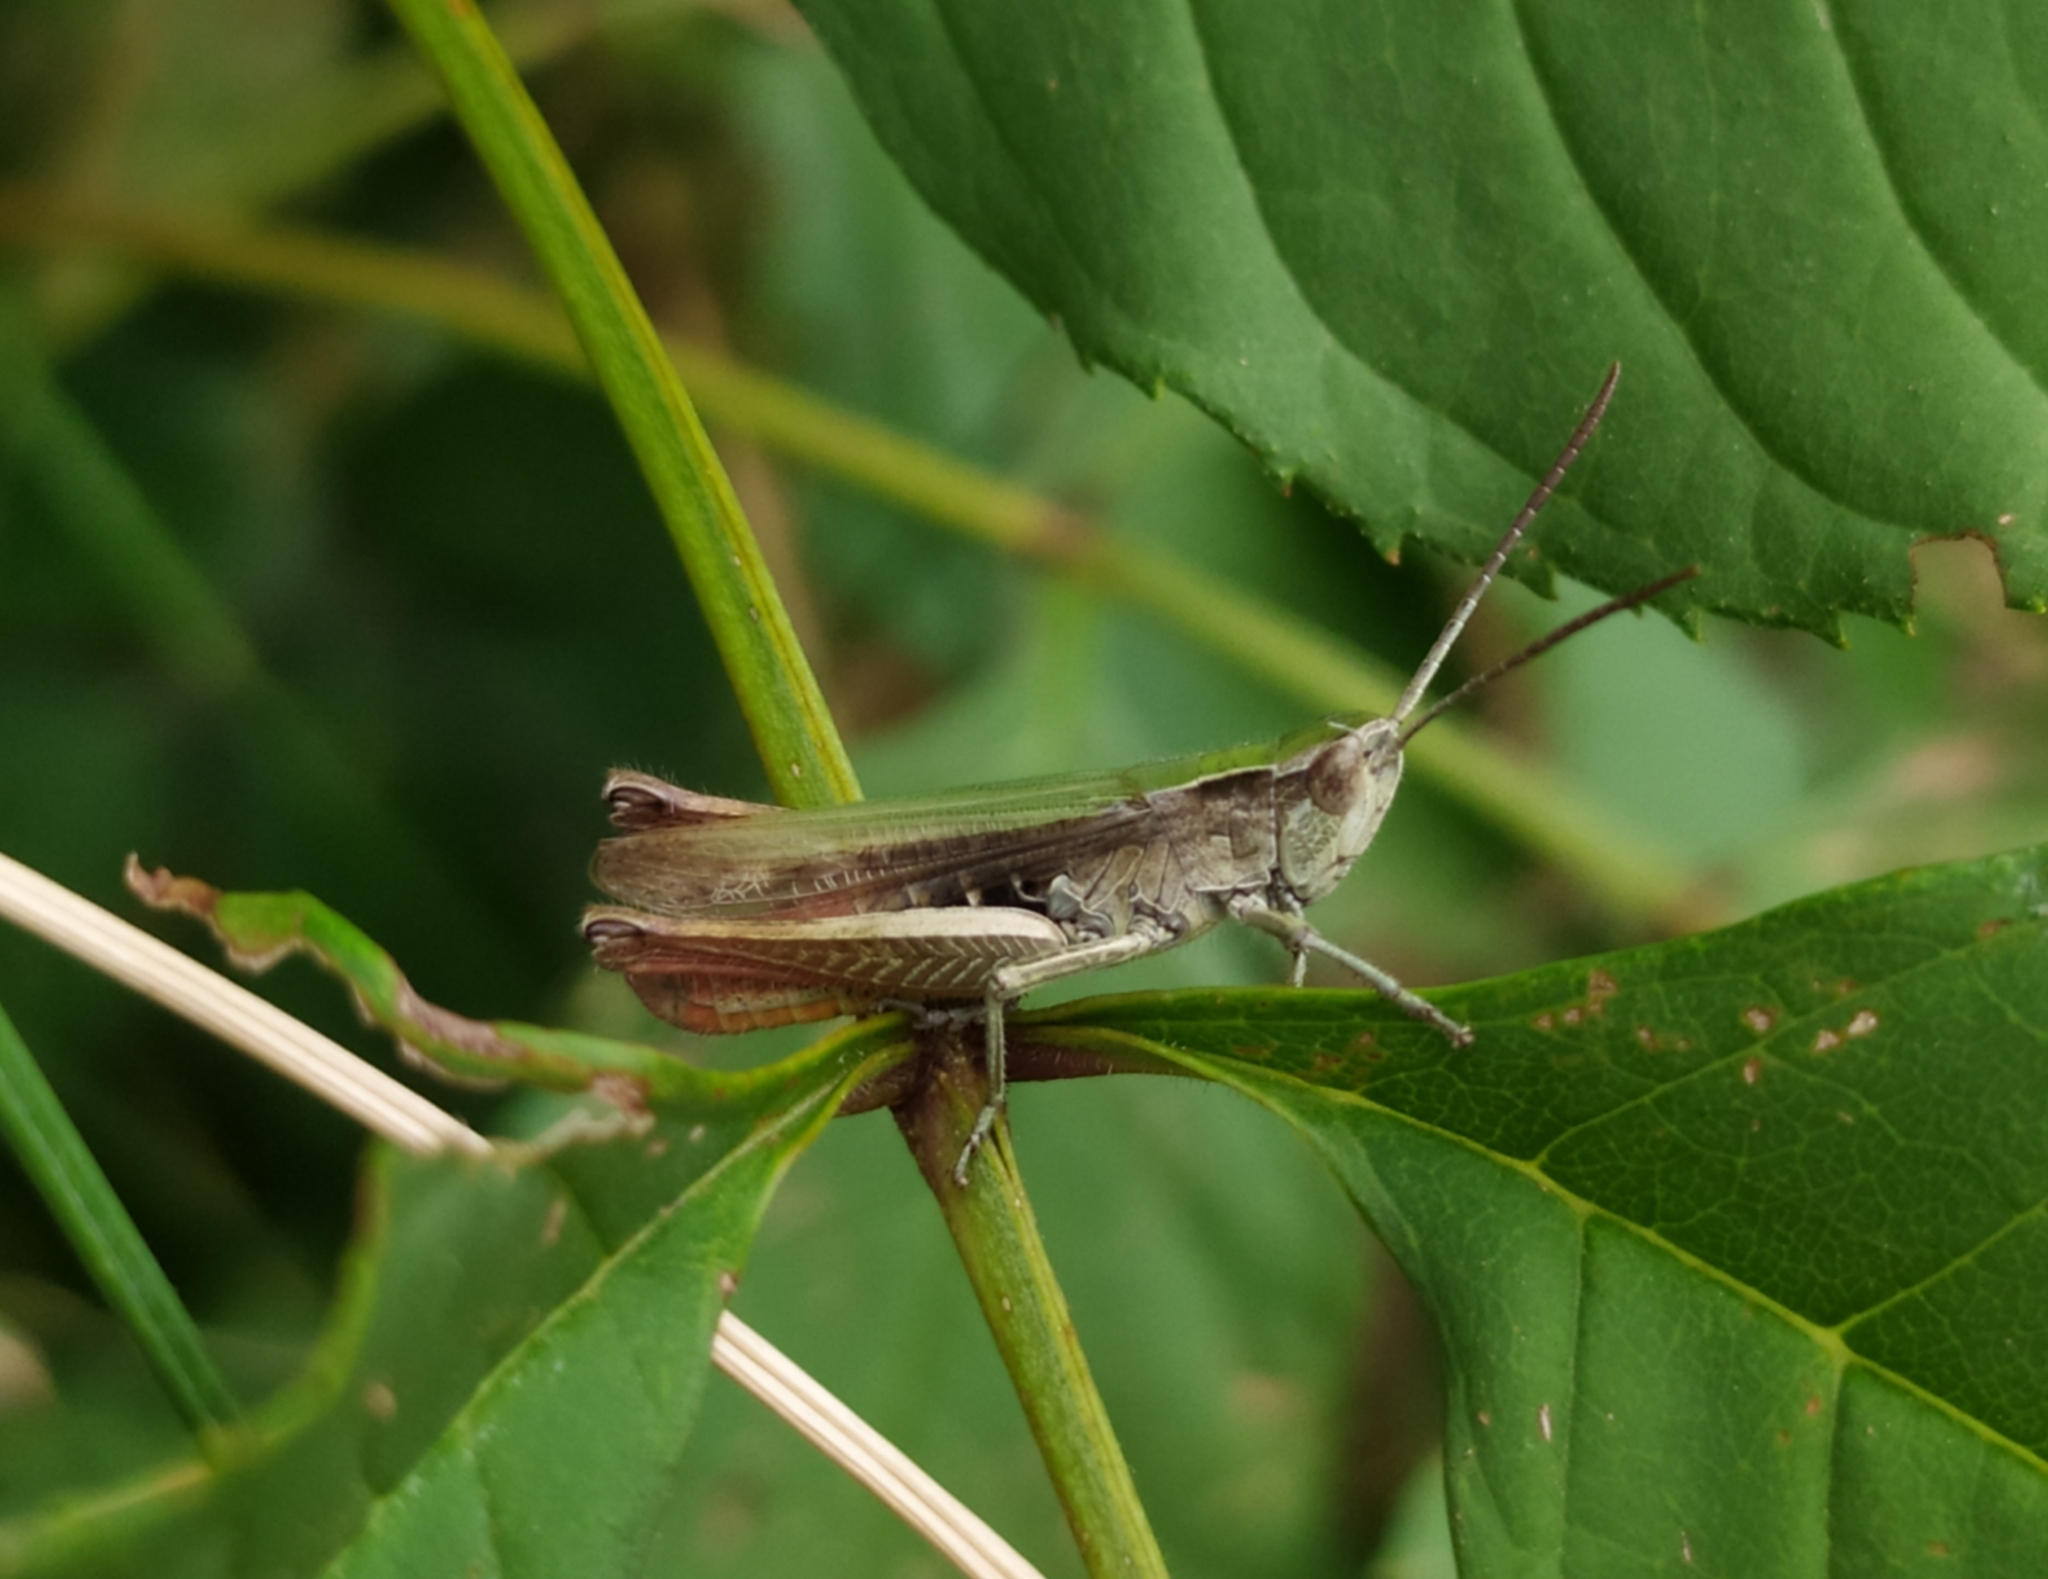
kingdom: Animalia
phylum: Arthropoda
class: Insecta
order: Orthoptera
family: Acrididae
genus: Chorthippus
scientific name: Chorthippus dorsatus
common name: Steppe grasshopper
